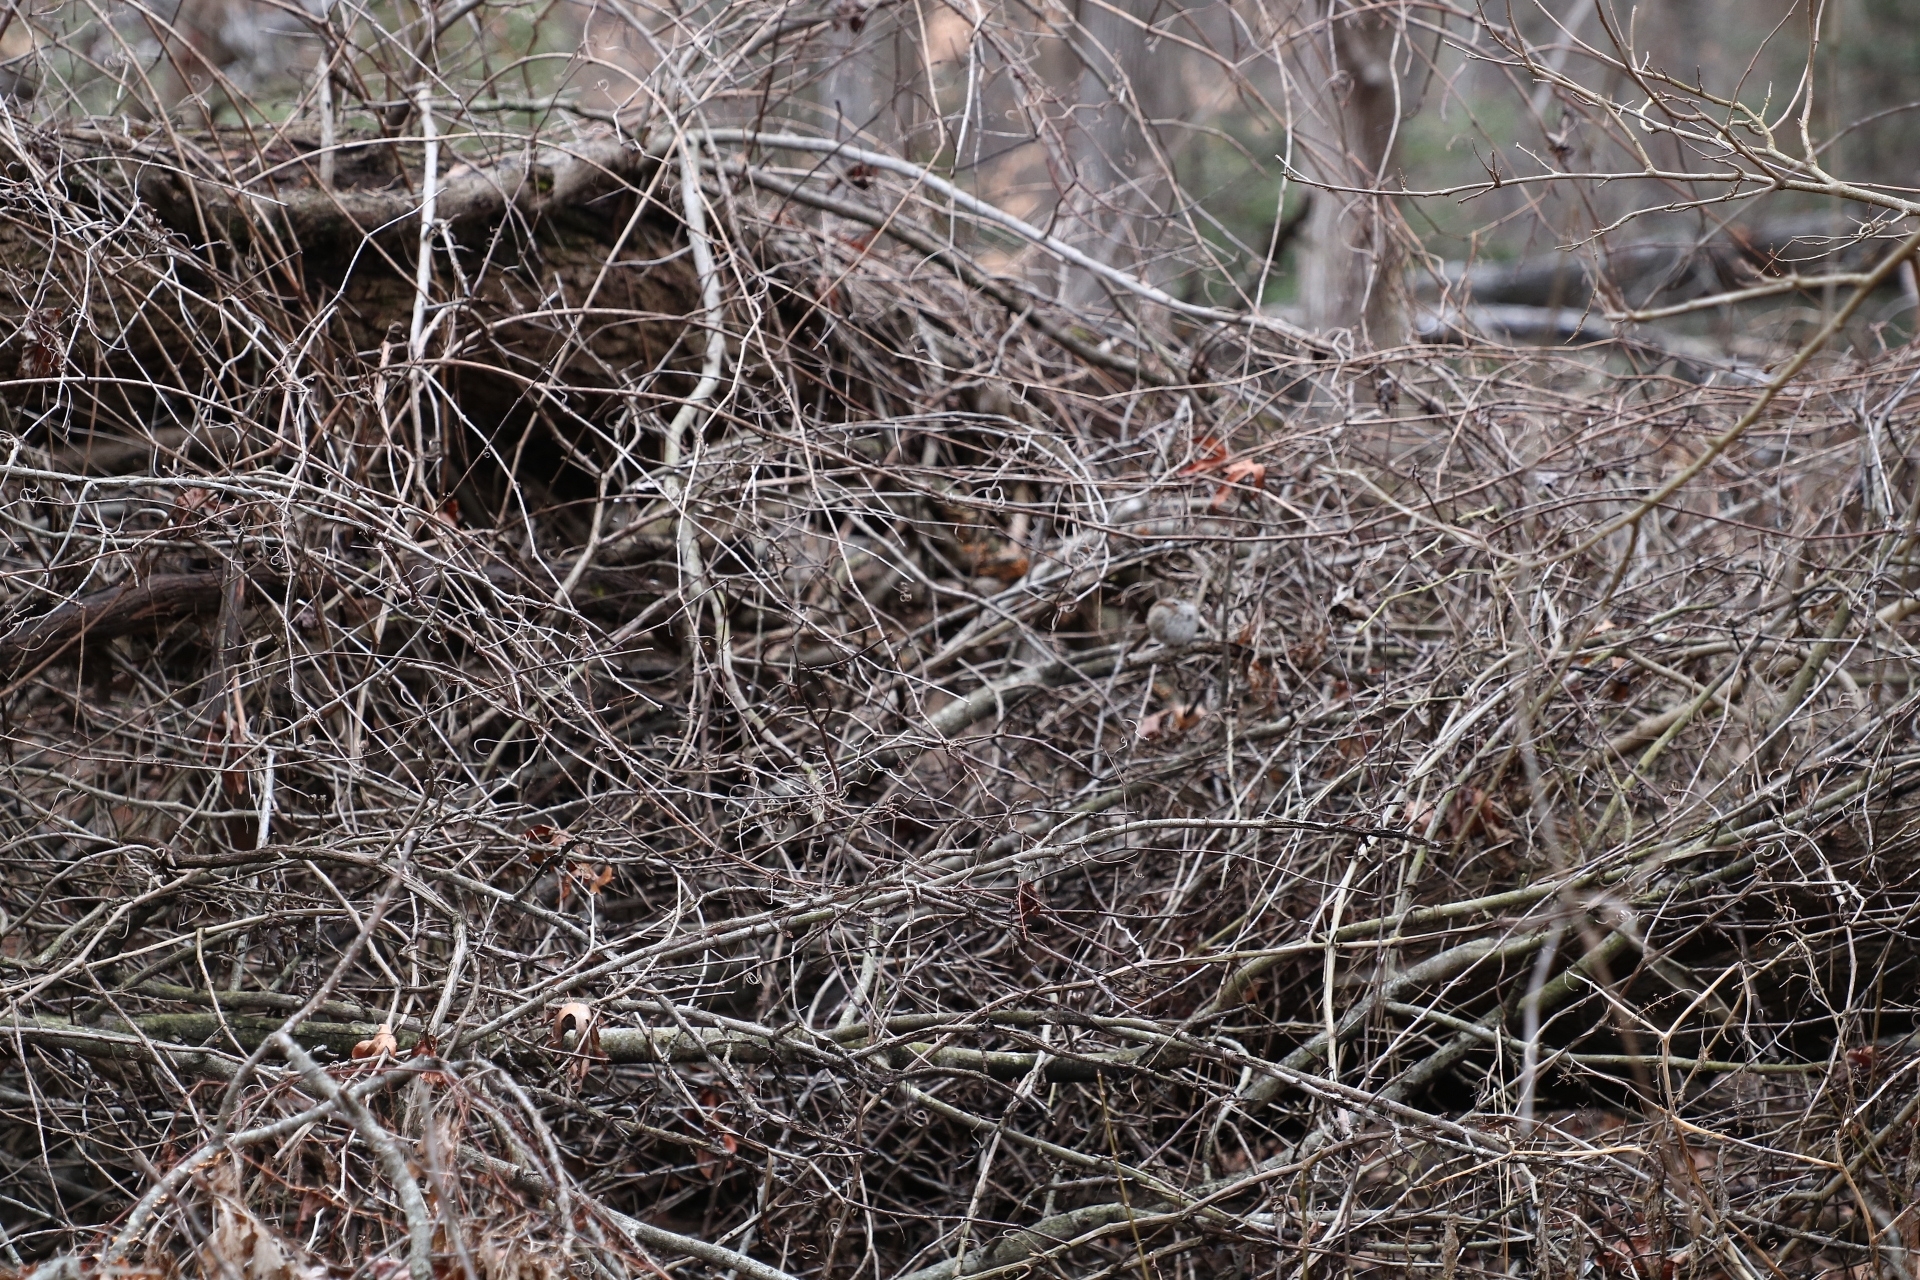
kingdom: Animalia
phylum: Chordata
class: Aves
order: Passeriformes
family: Passerellidae
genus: Zonotrichia
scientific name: Zonotrichia albicollis
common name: White-throated sparrow
